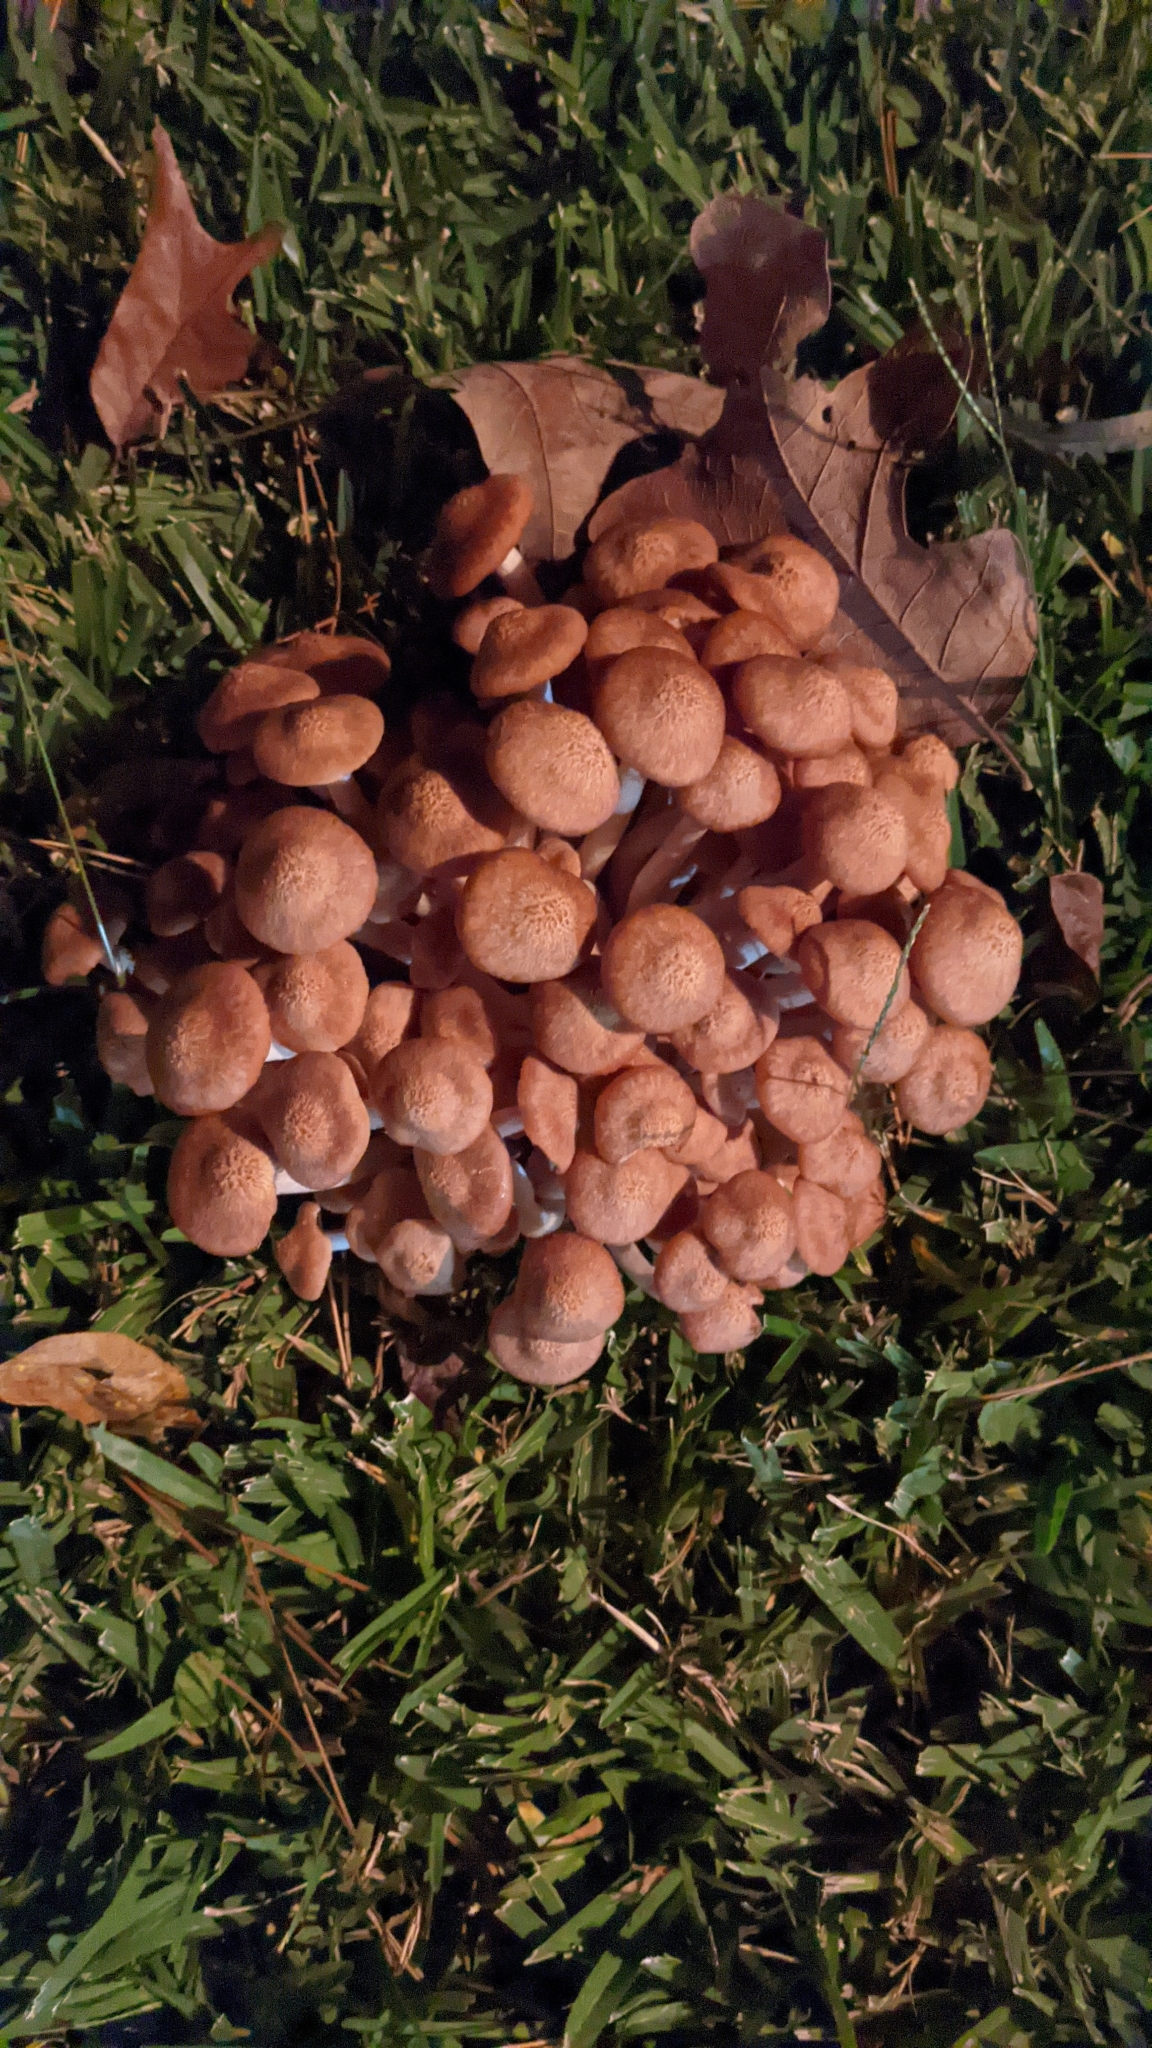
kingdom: Fungi
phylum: Basidiomycota
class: Agaricomycetes
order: Agaricales
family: Physalacriaceae
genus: Desarmillaria
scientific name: Desarmillaria caespitosa
